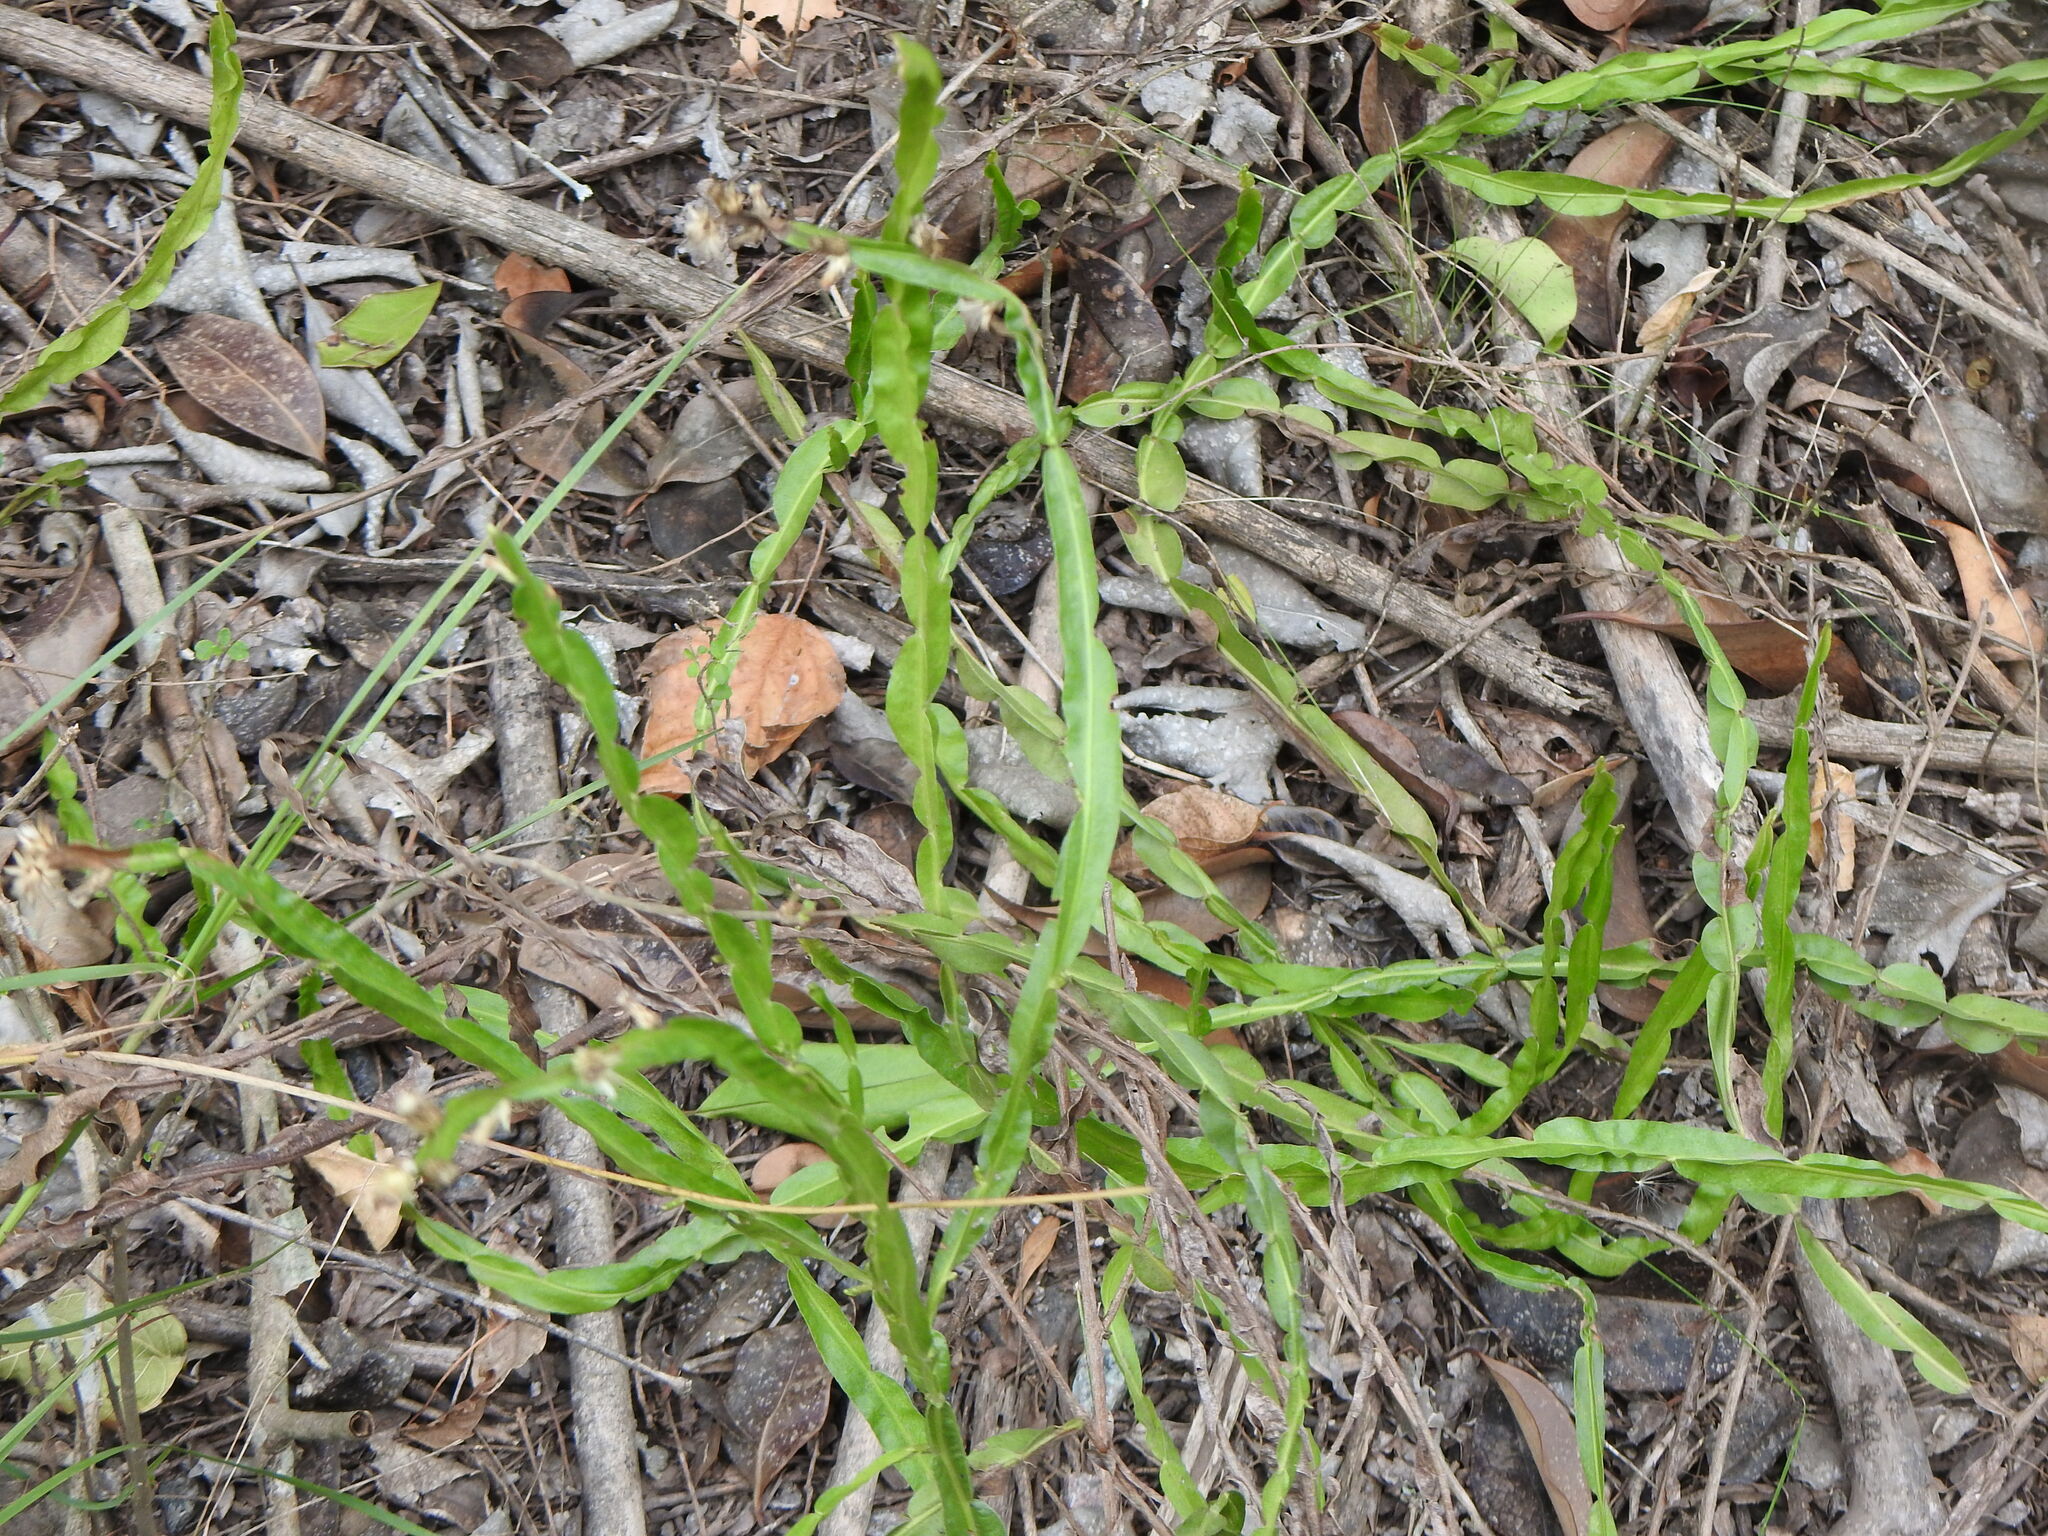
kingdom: Plantae
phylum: Tracheophyta
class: Magnoliopsida
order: Asterales
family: Asteraceae
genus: Baccharis
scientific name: Baccharis trimera
